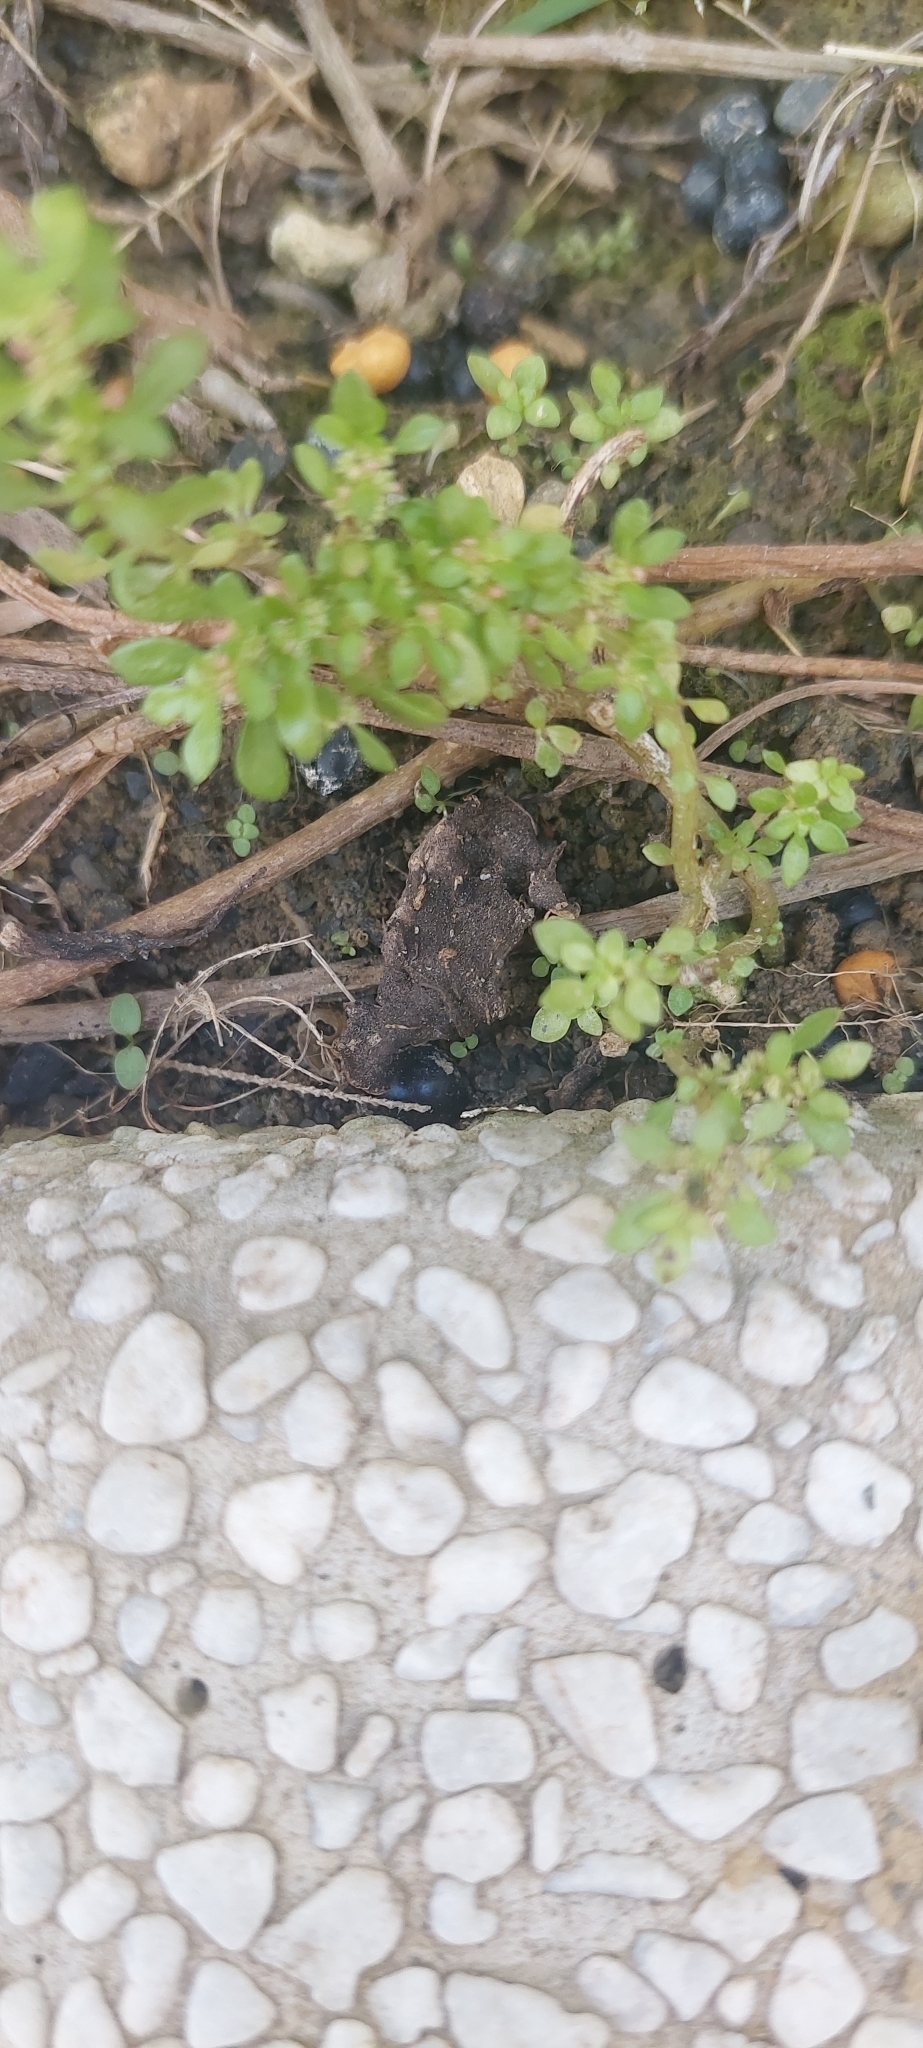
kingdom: Plantae
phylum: Tracheophyta
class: Magnoliopsida
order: Rosales
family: Urticaceae
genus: Pilea
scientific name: Pilea microphylla
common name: Artillery-plant
